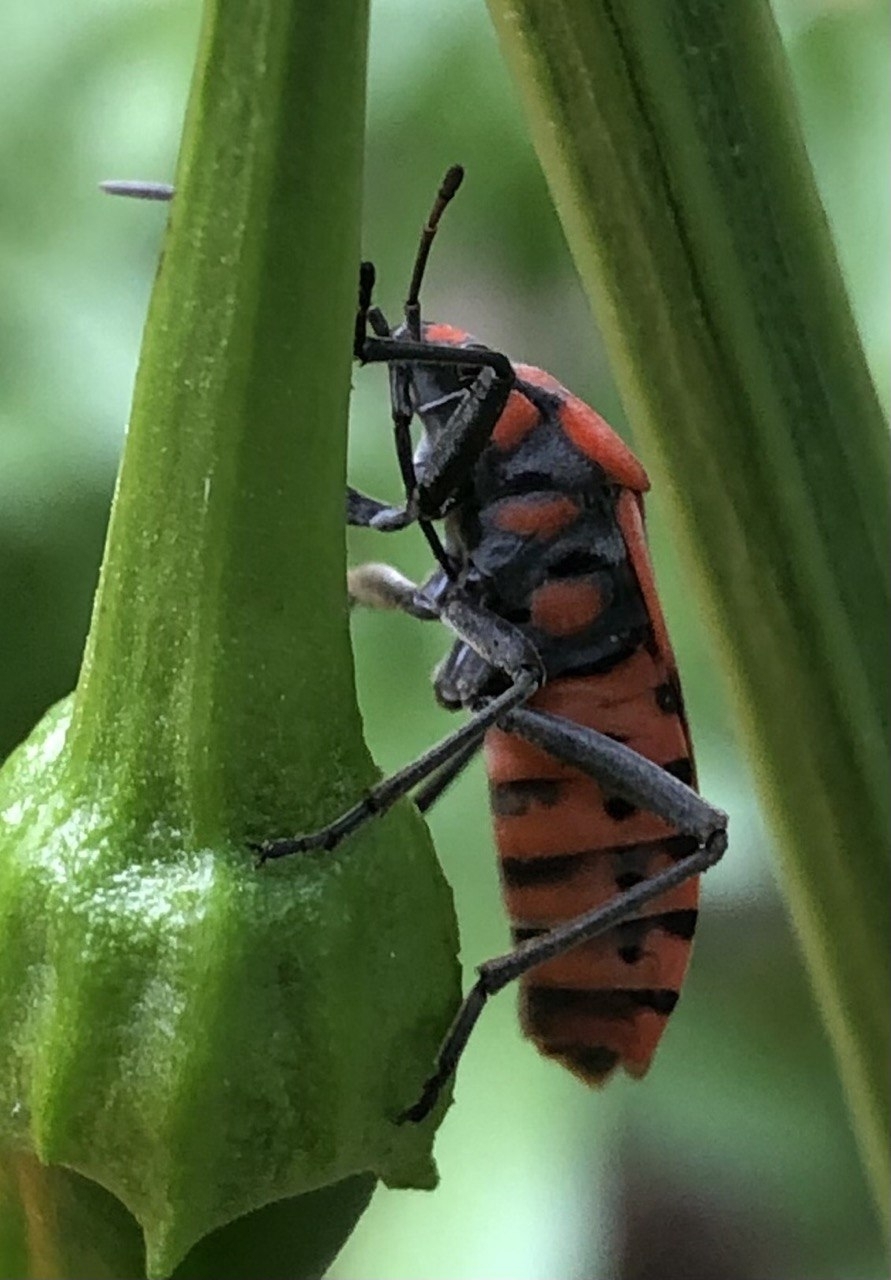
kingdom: Animalia
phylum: Arthropoda
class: Insecta
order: Hemiptera
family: Lygaeidae
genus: Spilostethus
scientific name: Spilostethus pandurus
